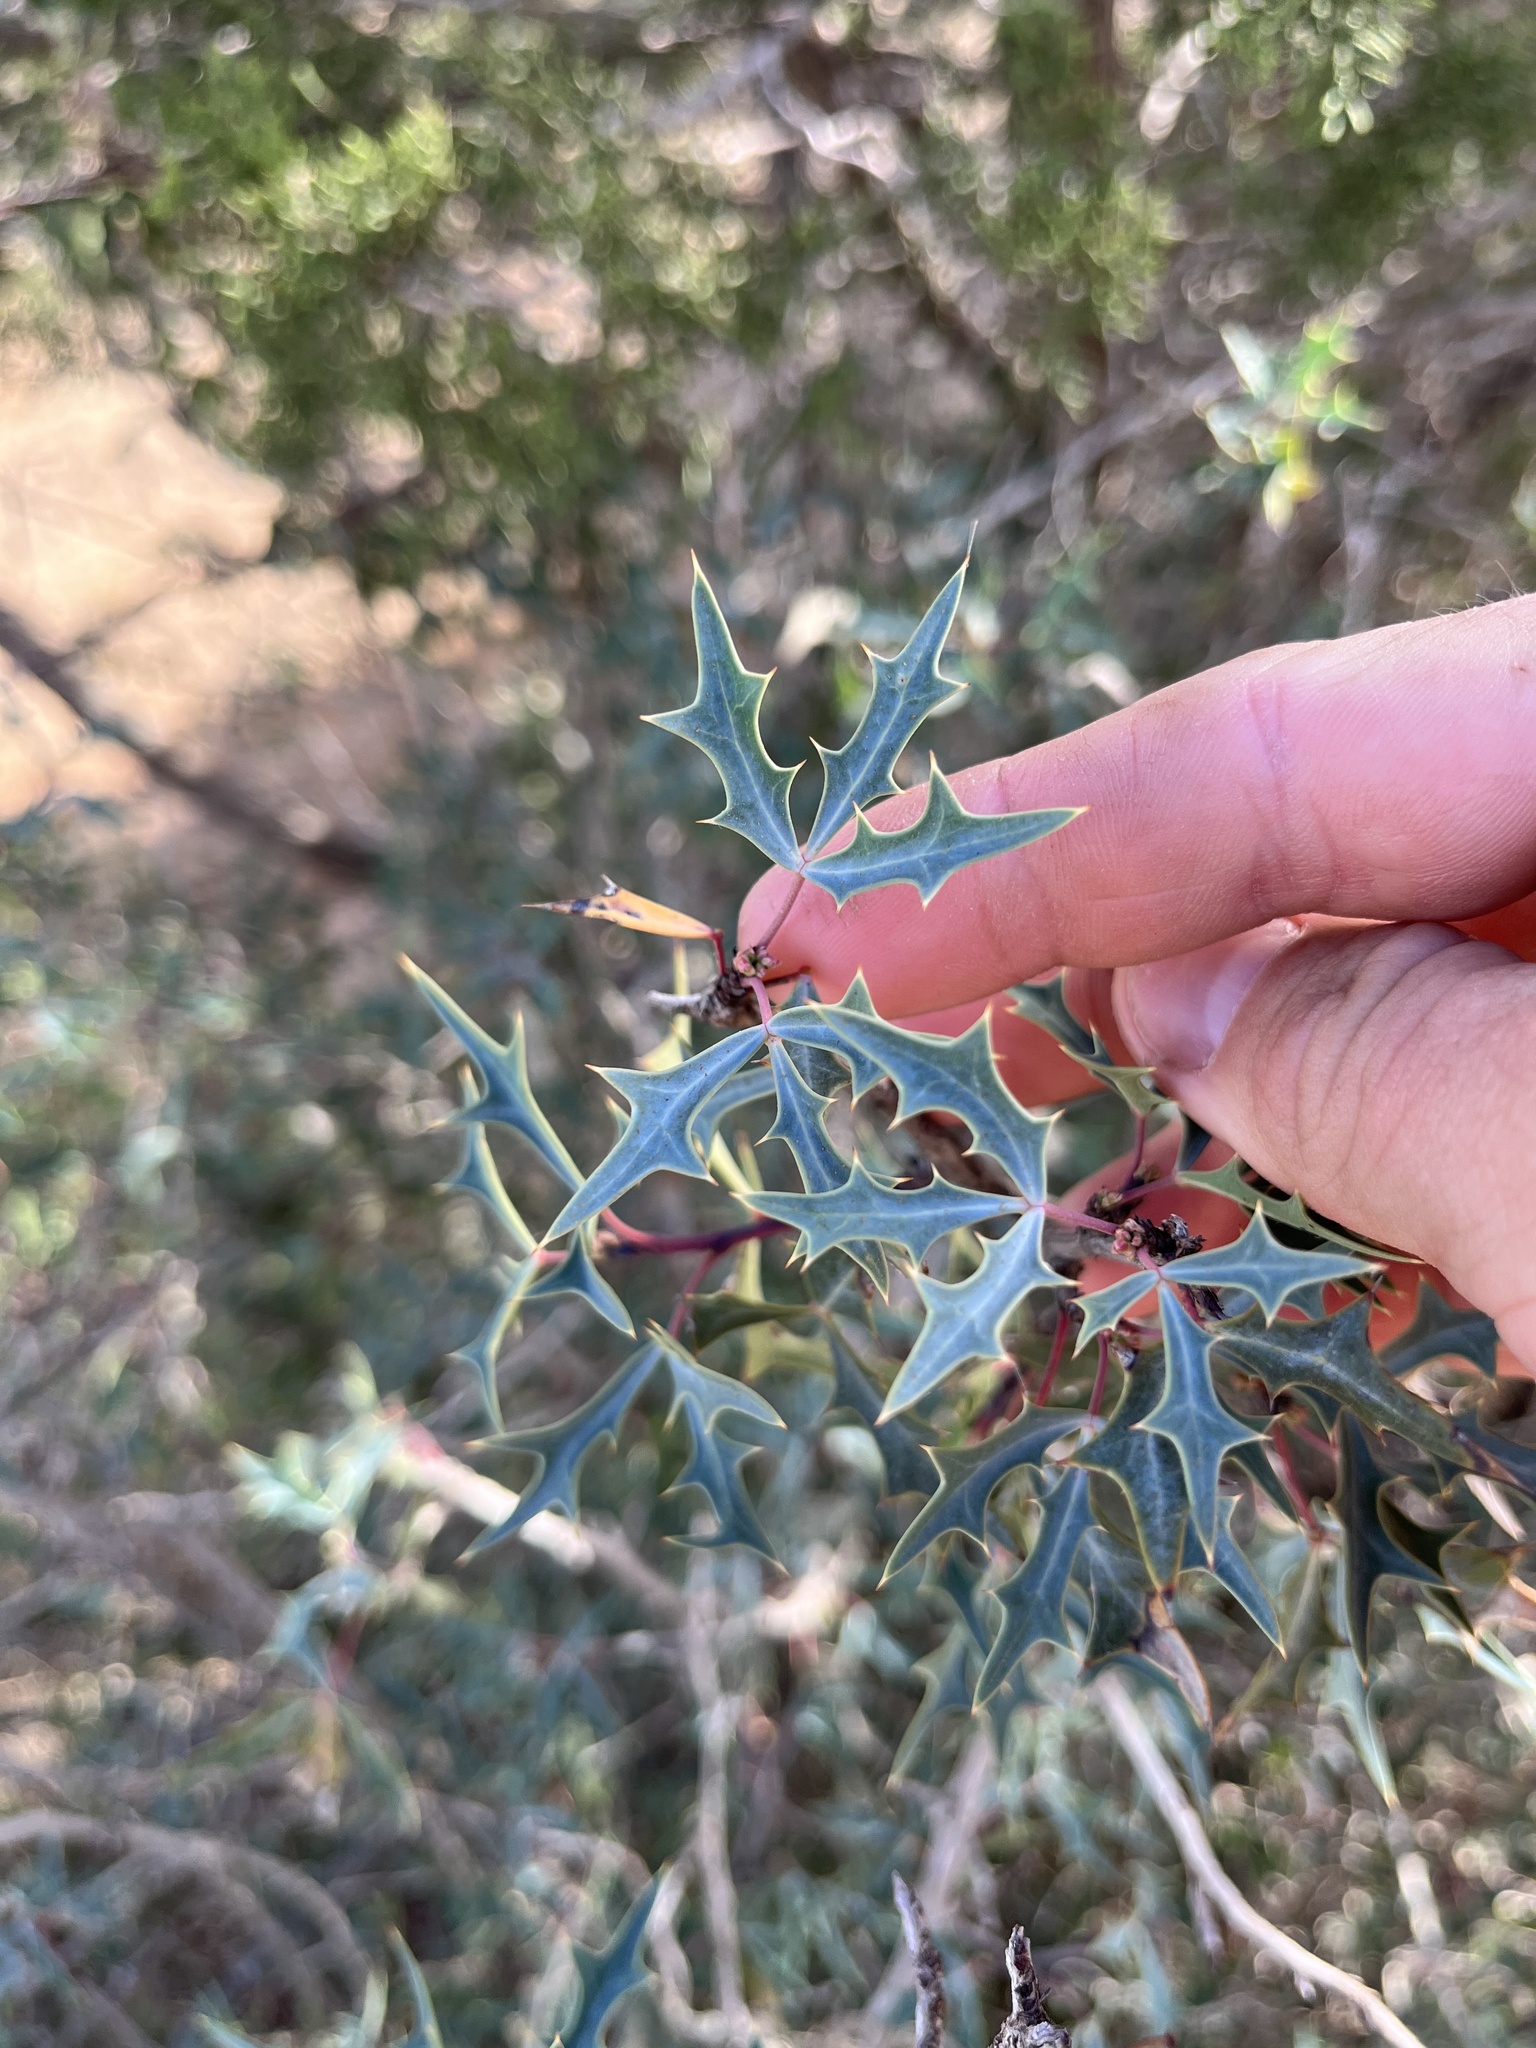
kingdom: Plantae
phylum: Tracheophyta
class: Magnoliopsida
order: Ranunculales
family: Berberidaceae
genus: Alloberberis
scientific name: Alloberberis trifoliolata
